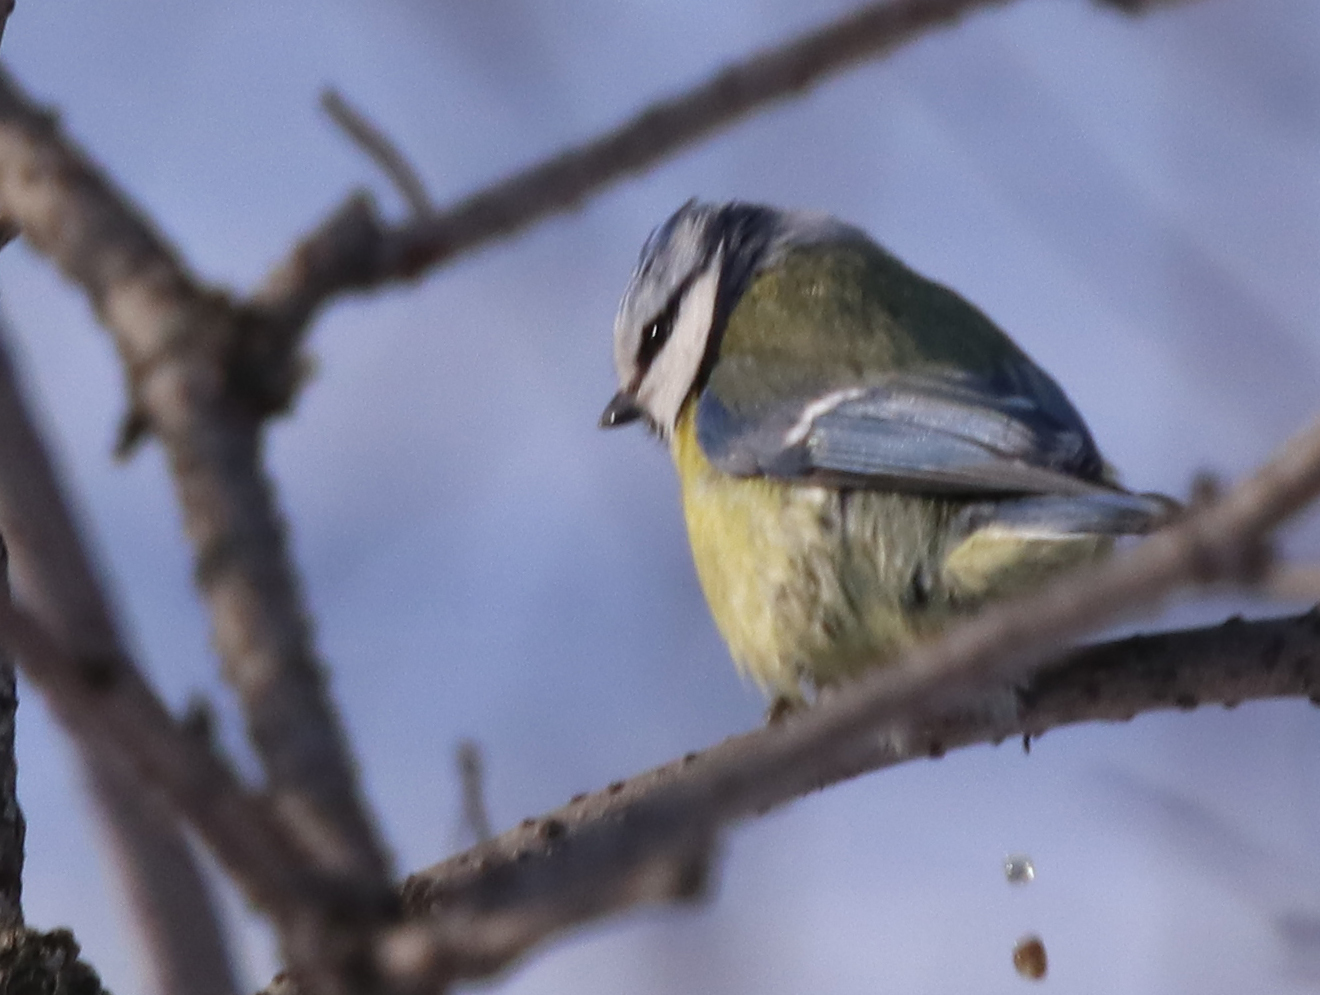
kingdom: Animalia
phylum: Chordata
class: Aves
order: Passeriformes
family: Paridae
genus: Cyanistes
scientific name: Cyanistes caeruleus
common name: Eurasian blue tit
